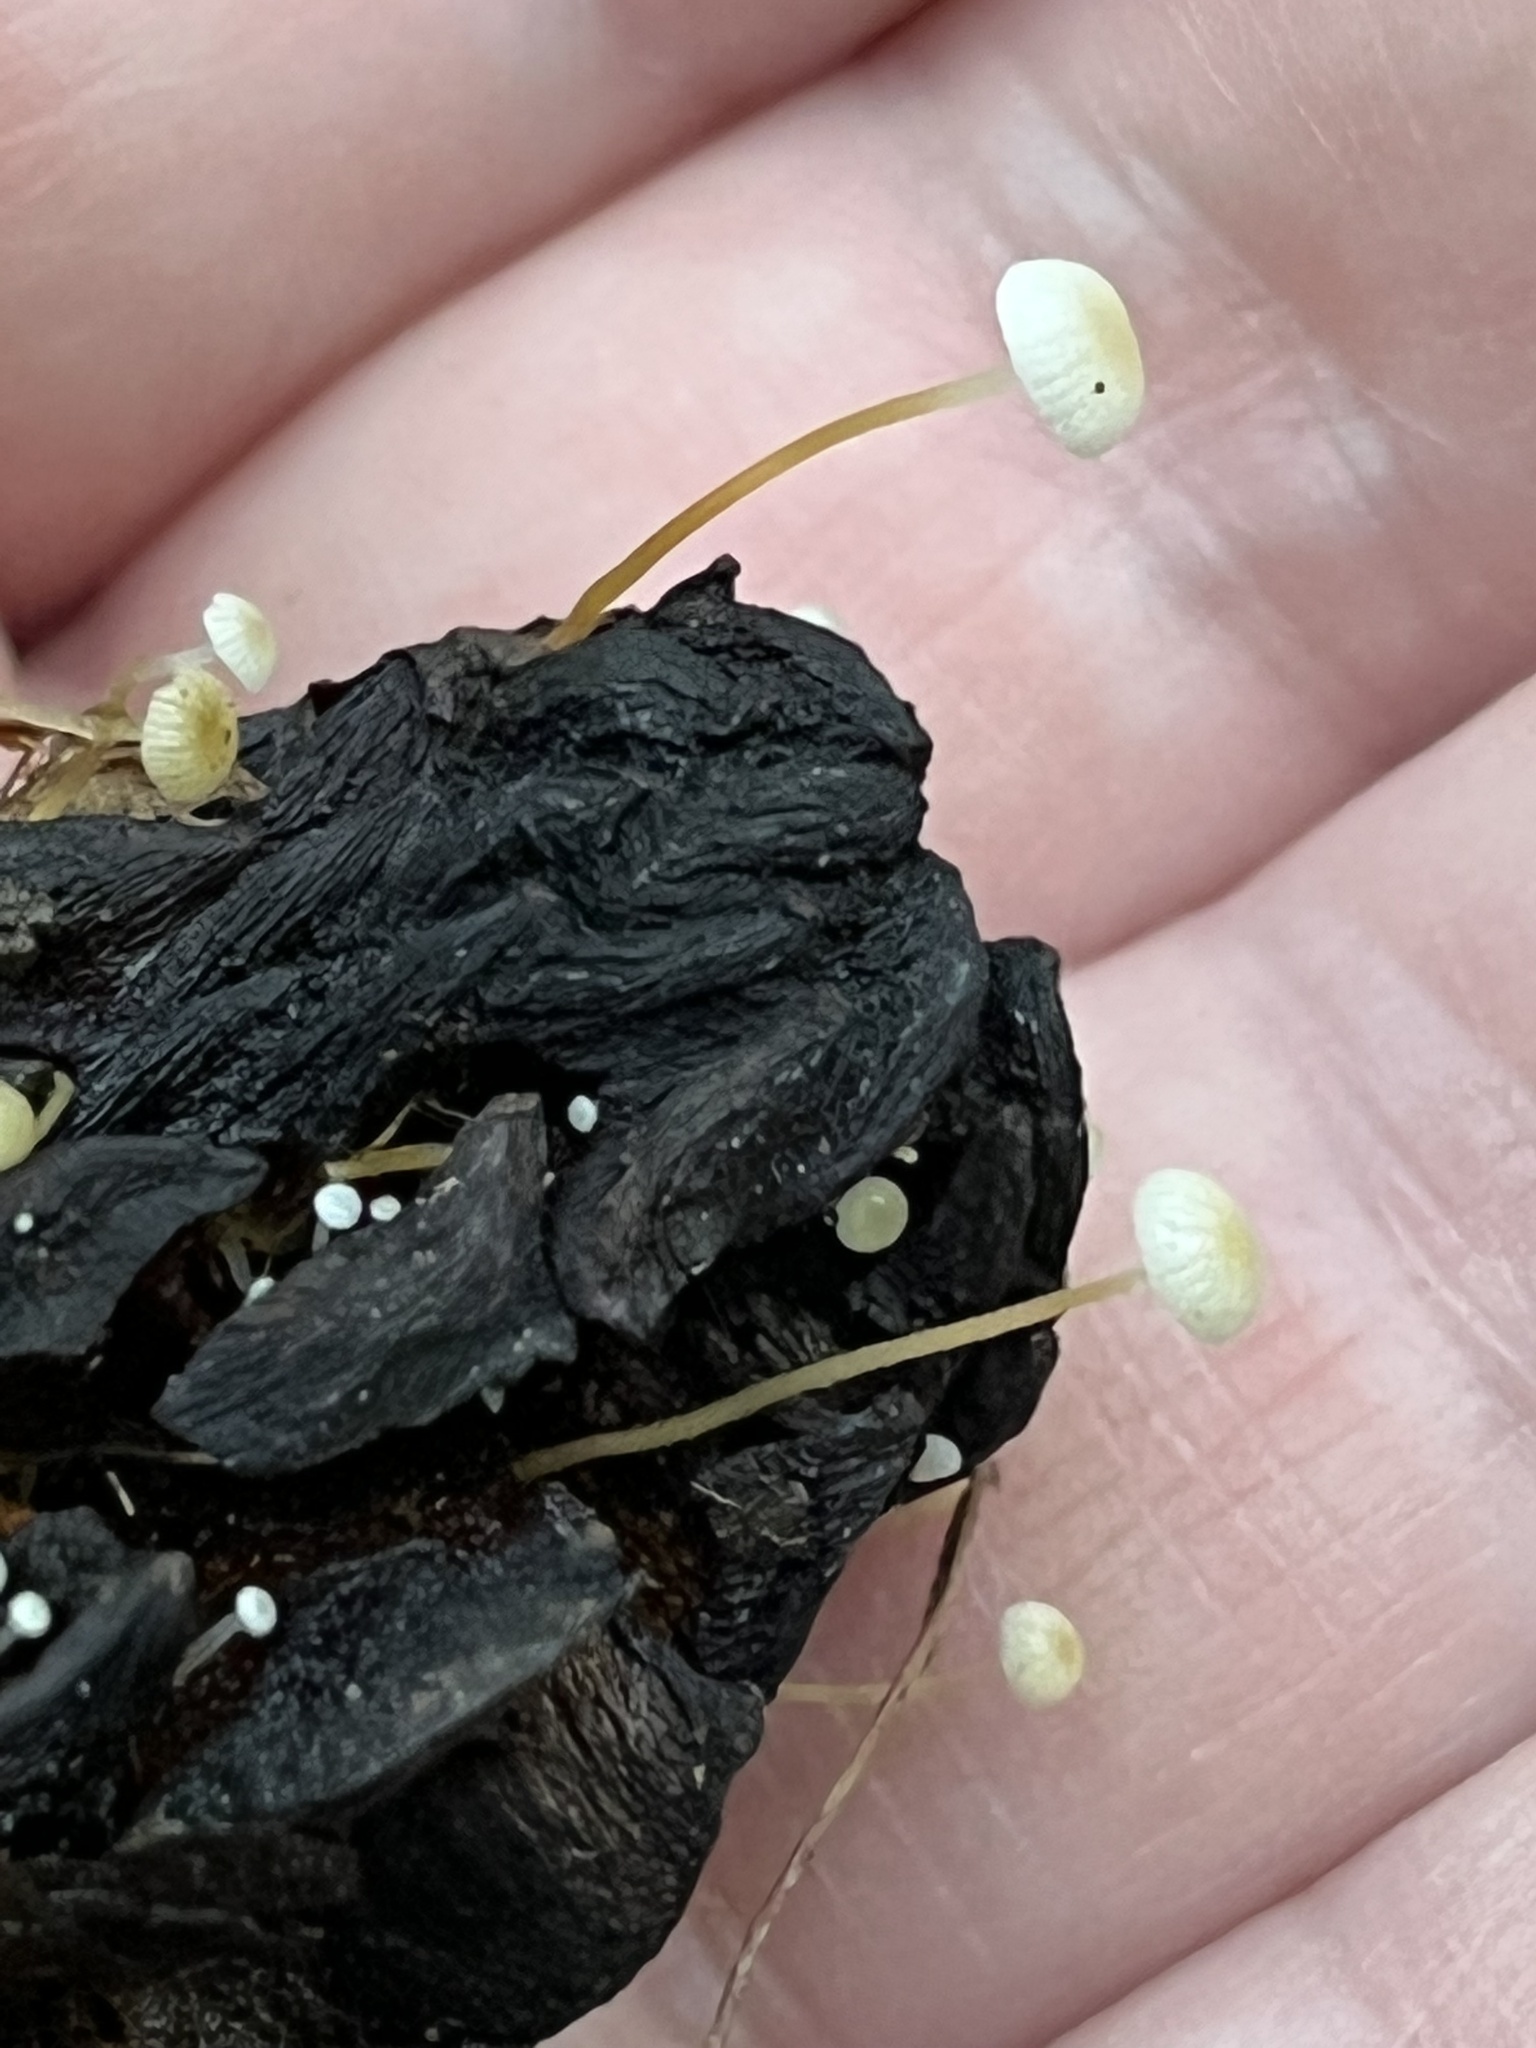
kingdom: Fungi
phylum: Basidiomycota
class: Agaricomycetes
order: Agaricales
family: Physalacriaceae
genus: Strobilurus
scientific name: Strobilurus conigenoides
